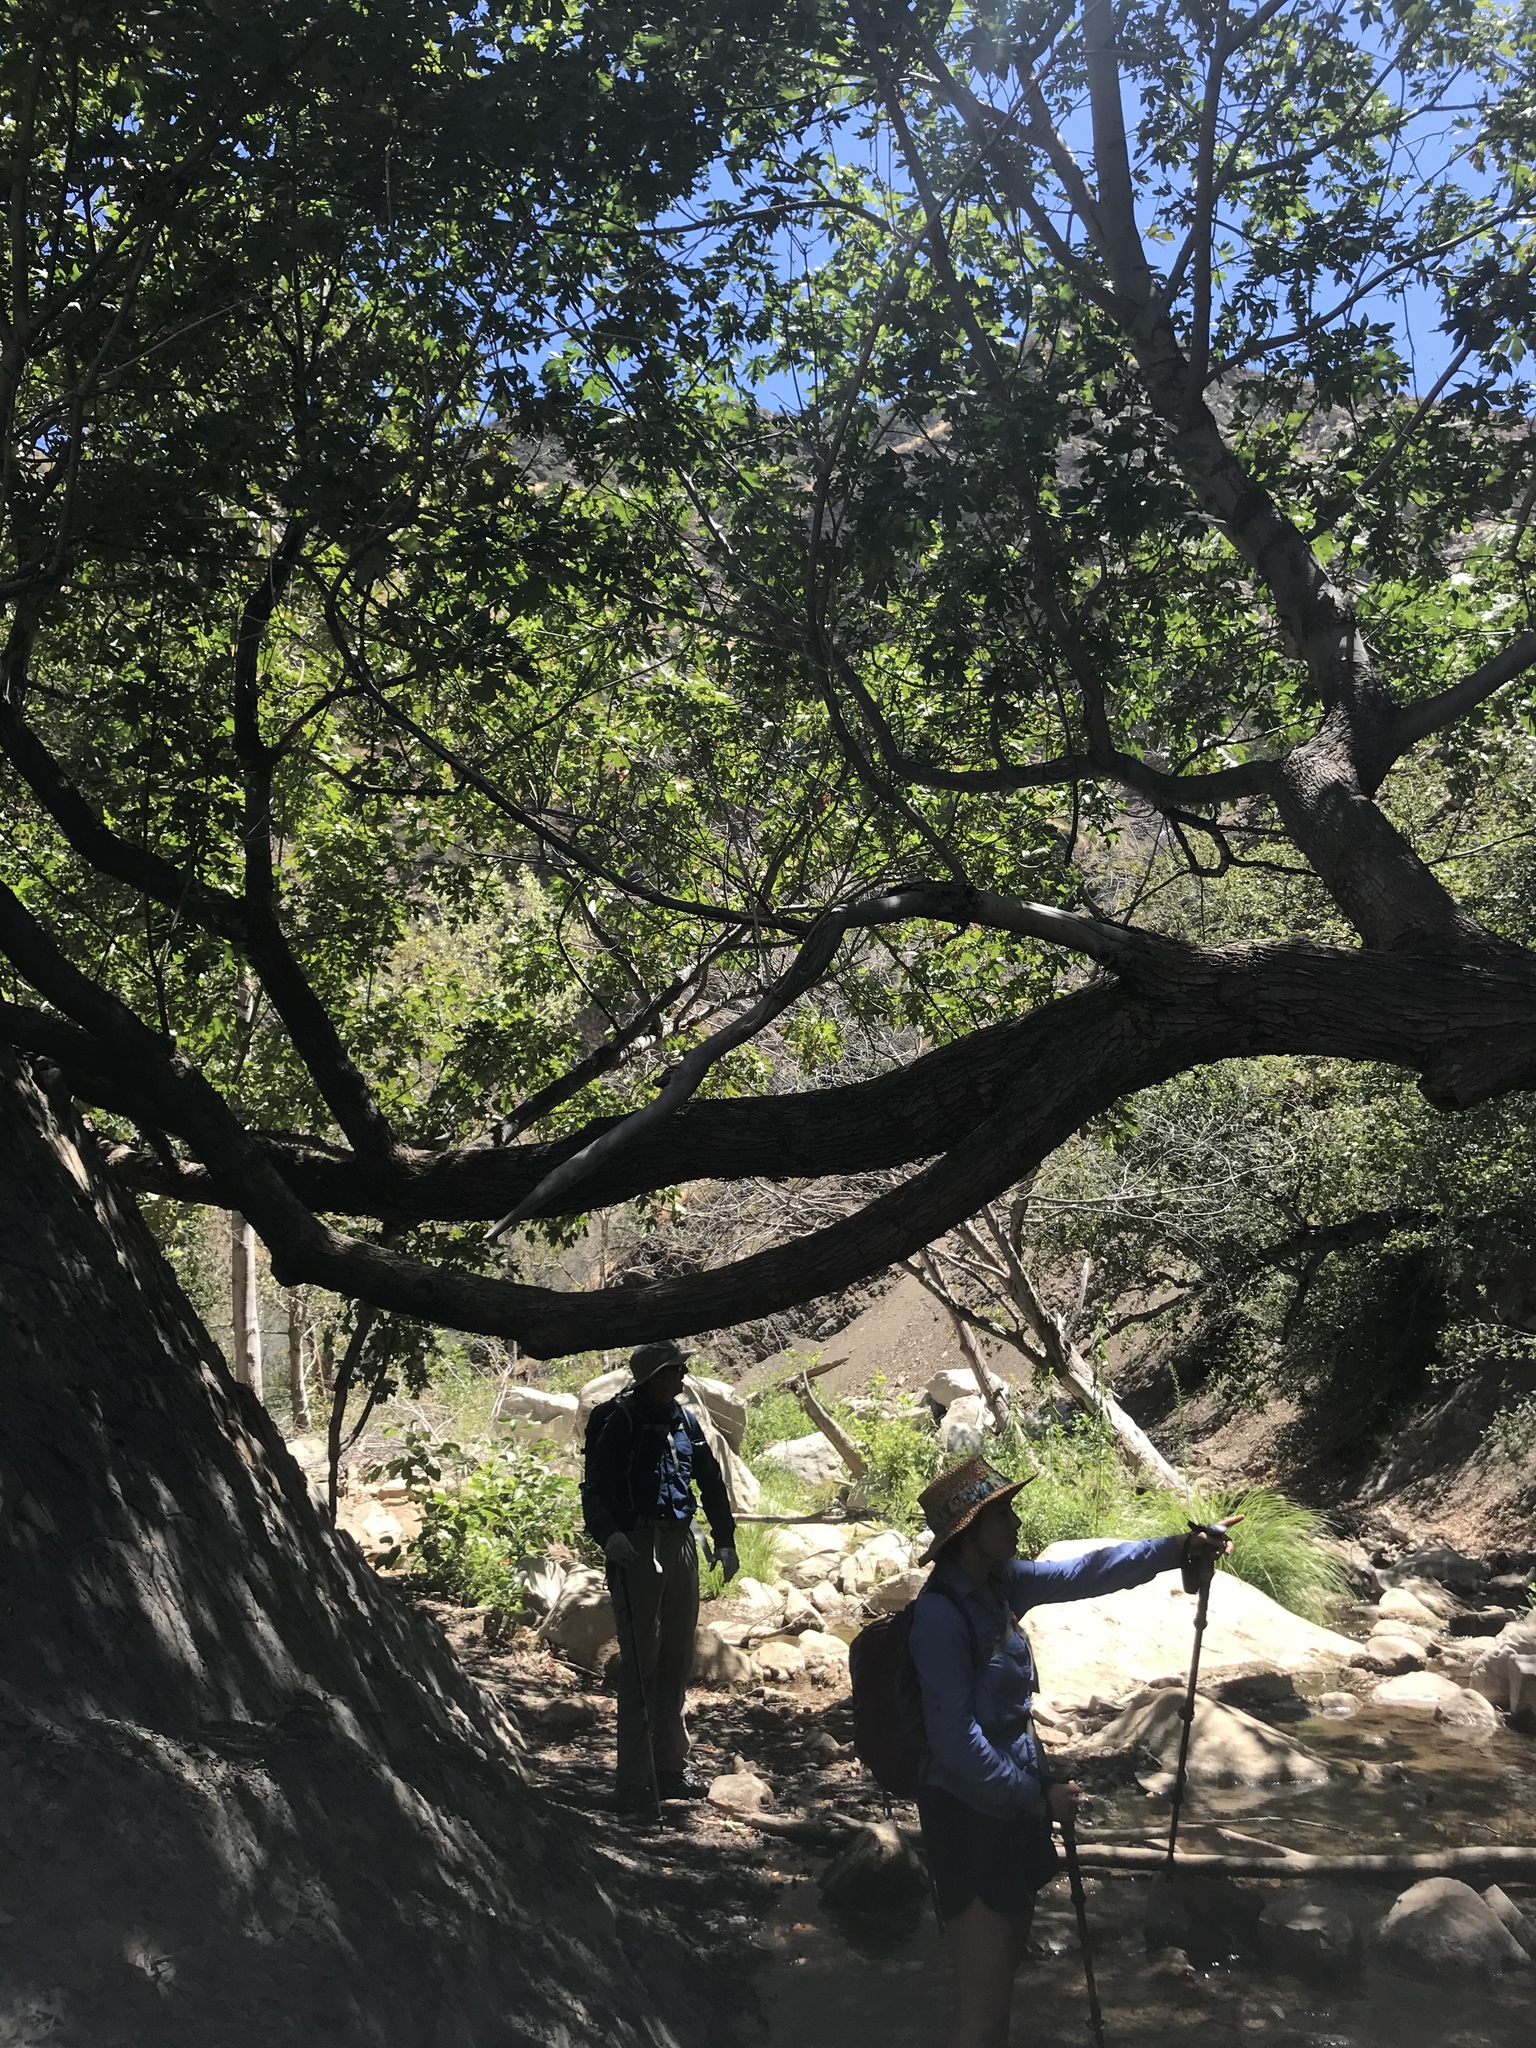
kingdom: Plantae
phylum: Tracheophyta
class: Magnoliopsida
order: Sapindales
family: Sapindaceae
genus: Acer
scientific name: Acer macrophyllum
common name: Oregon maple
